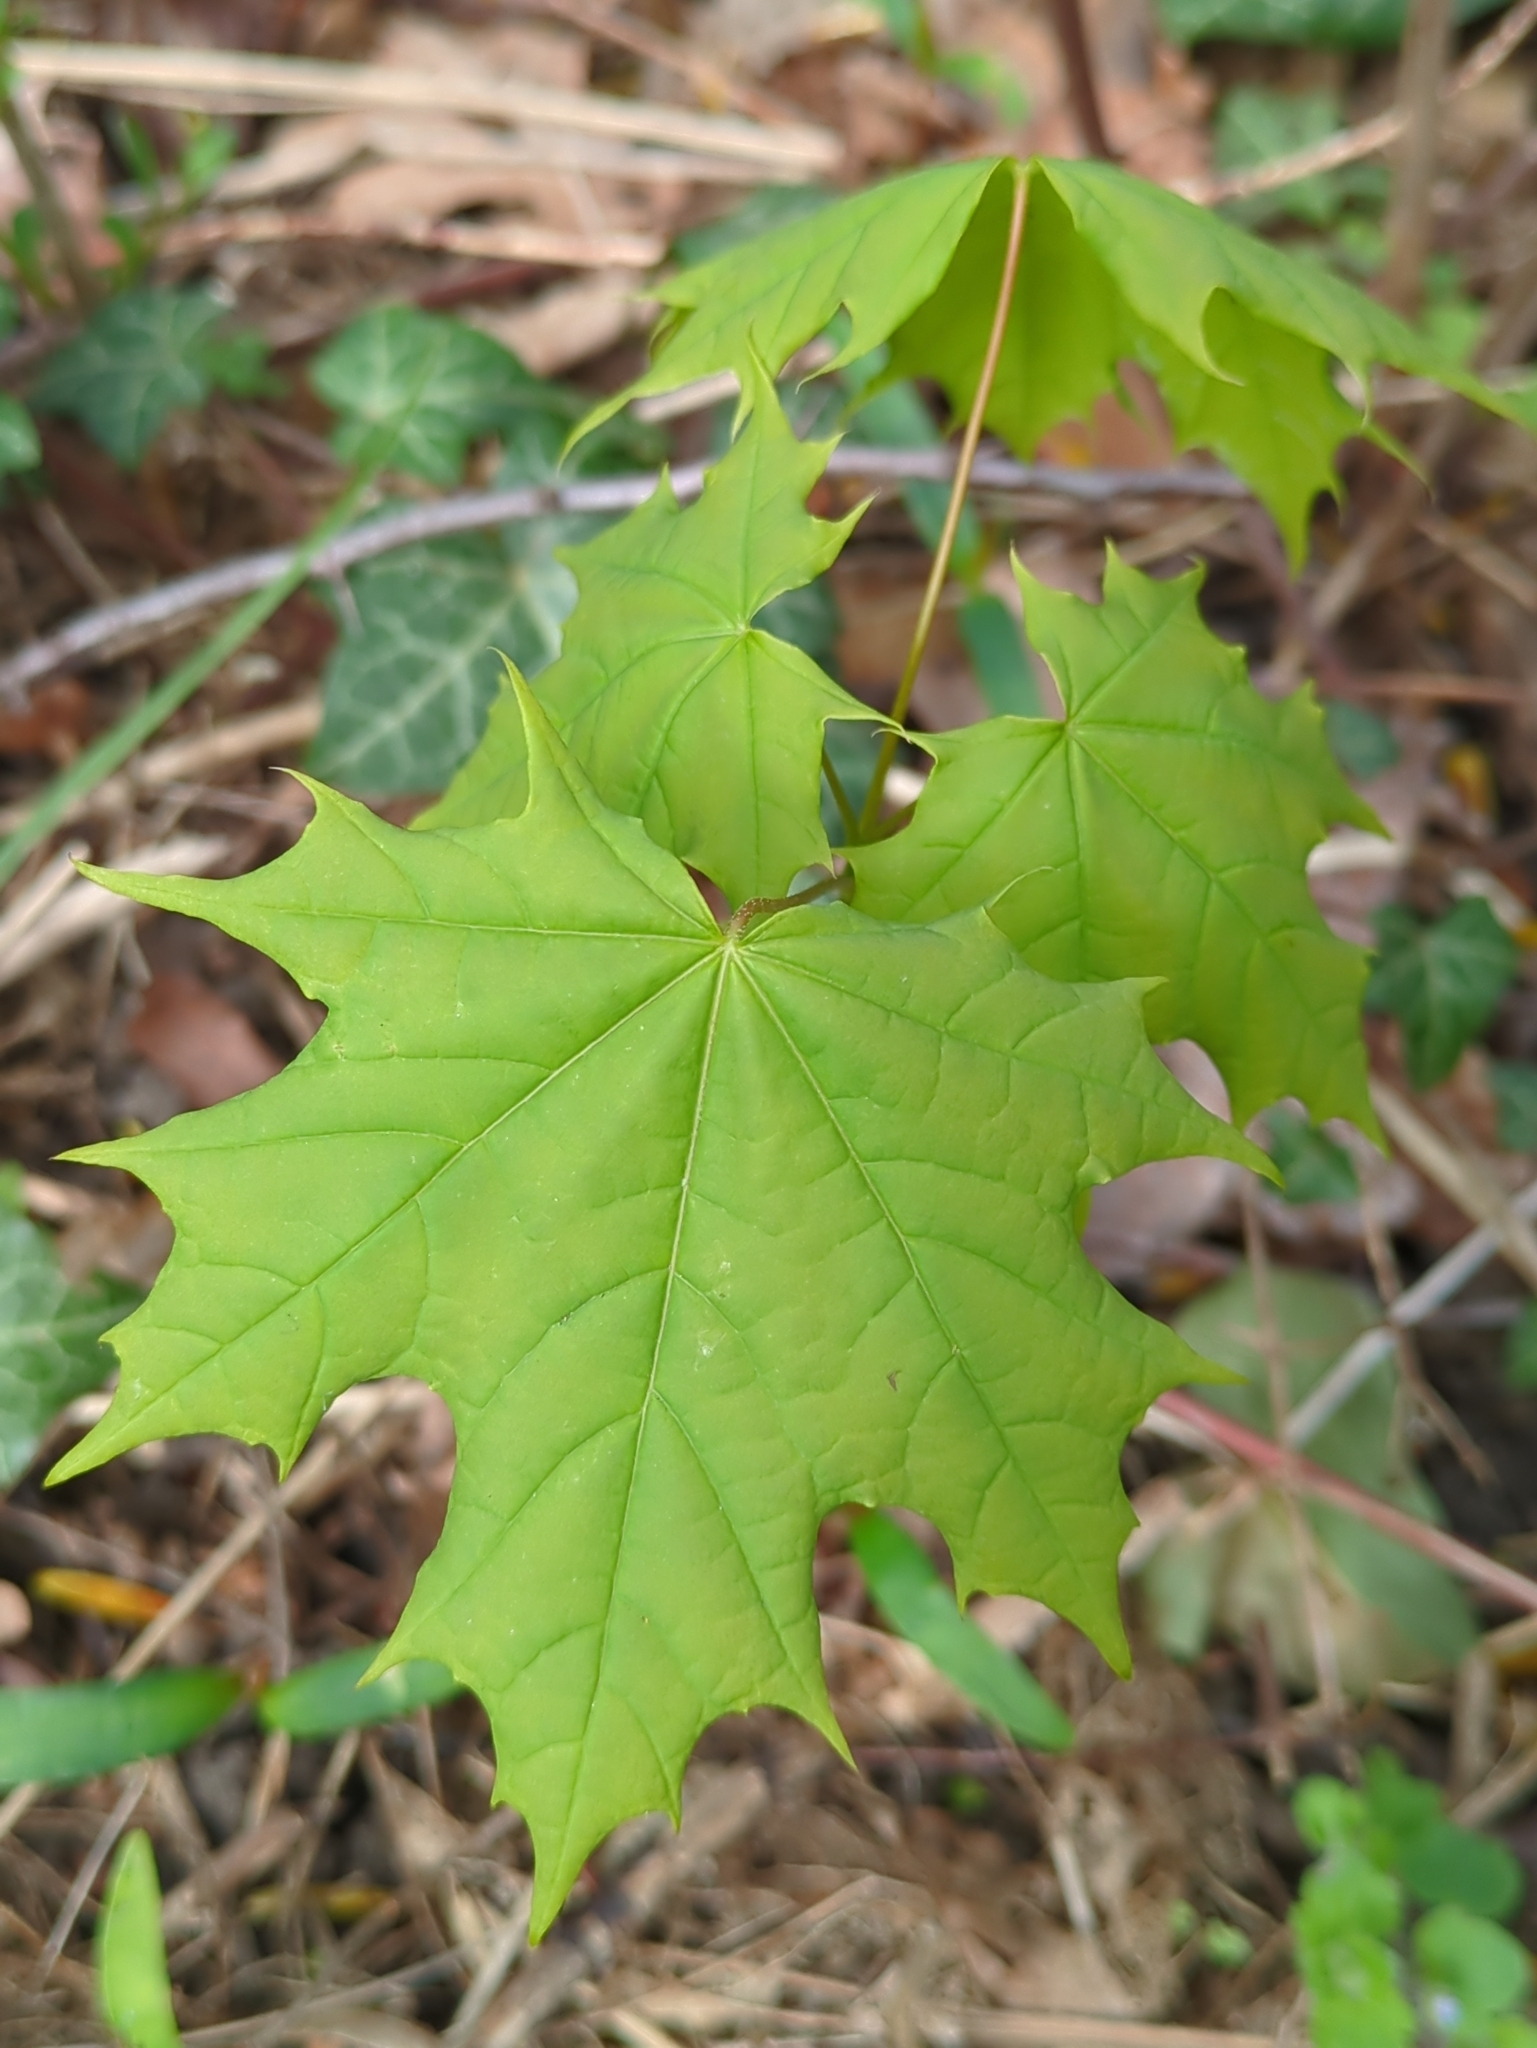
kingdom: Plantae
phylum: Tracheophyta
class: Magnoliopsida
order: Sapindales
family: Sapindaceae
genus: Acer
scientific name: Acer platanoides
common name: Norway maple
